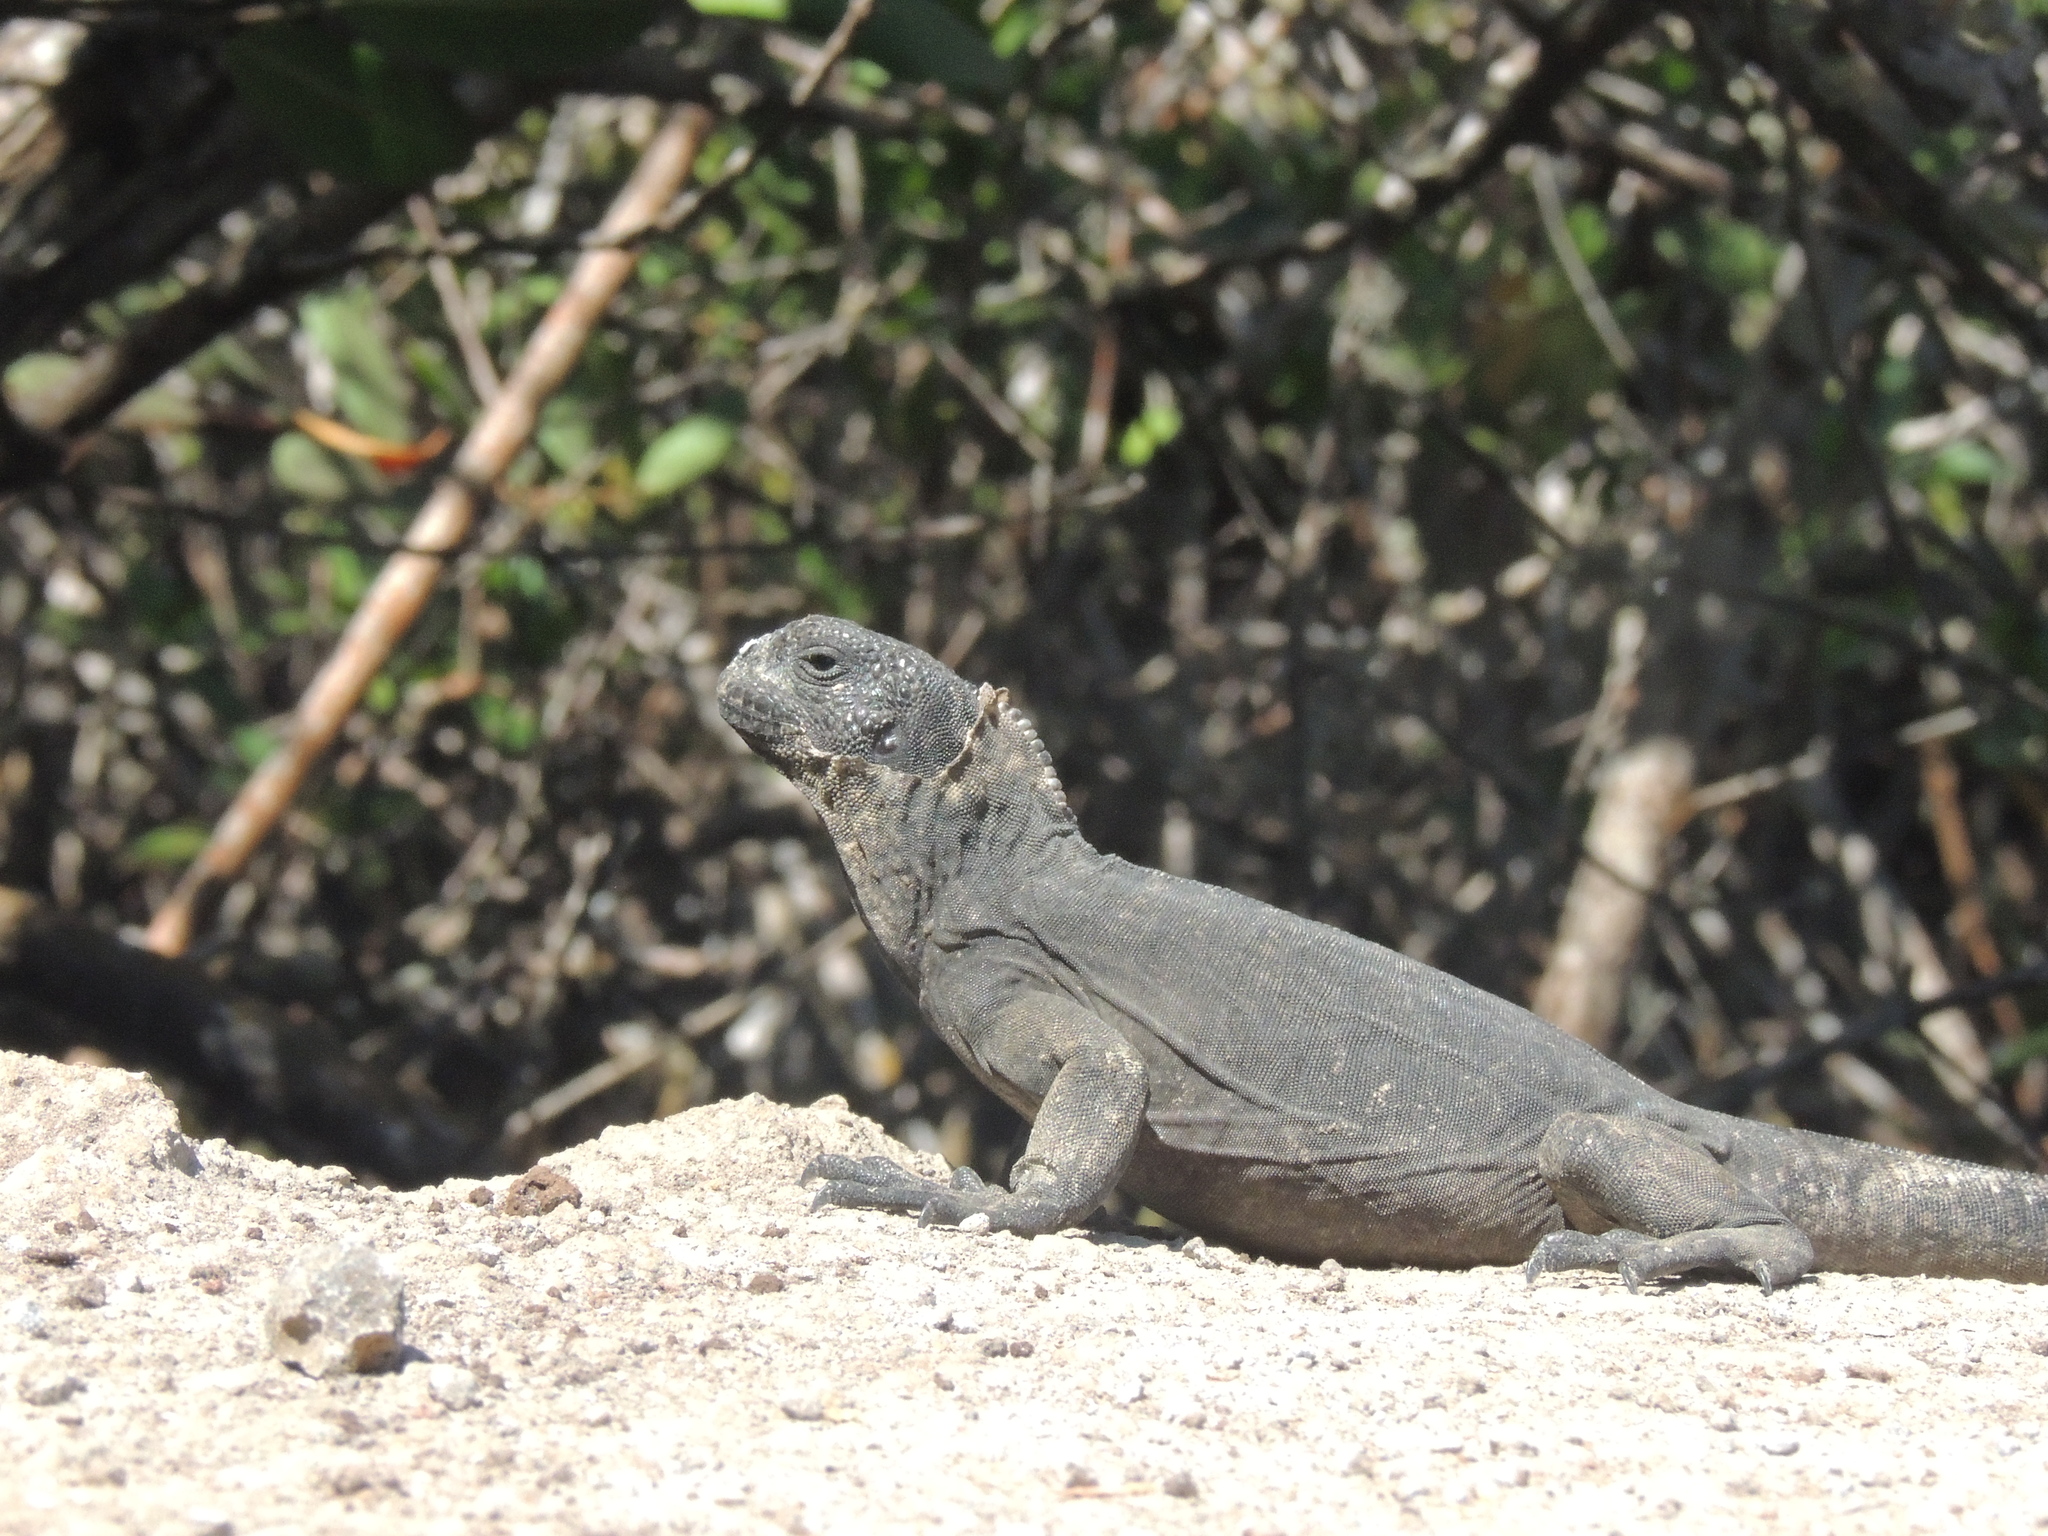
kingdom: Animalia
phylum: Chordata
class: Squamata
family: Iguanidae
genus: Amblyrhynchus
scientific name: Amblyrhynchus cristatus
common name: Marine iguana
